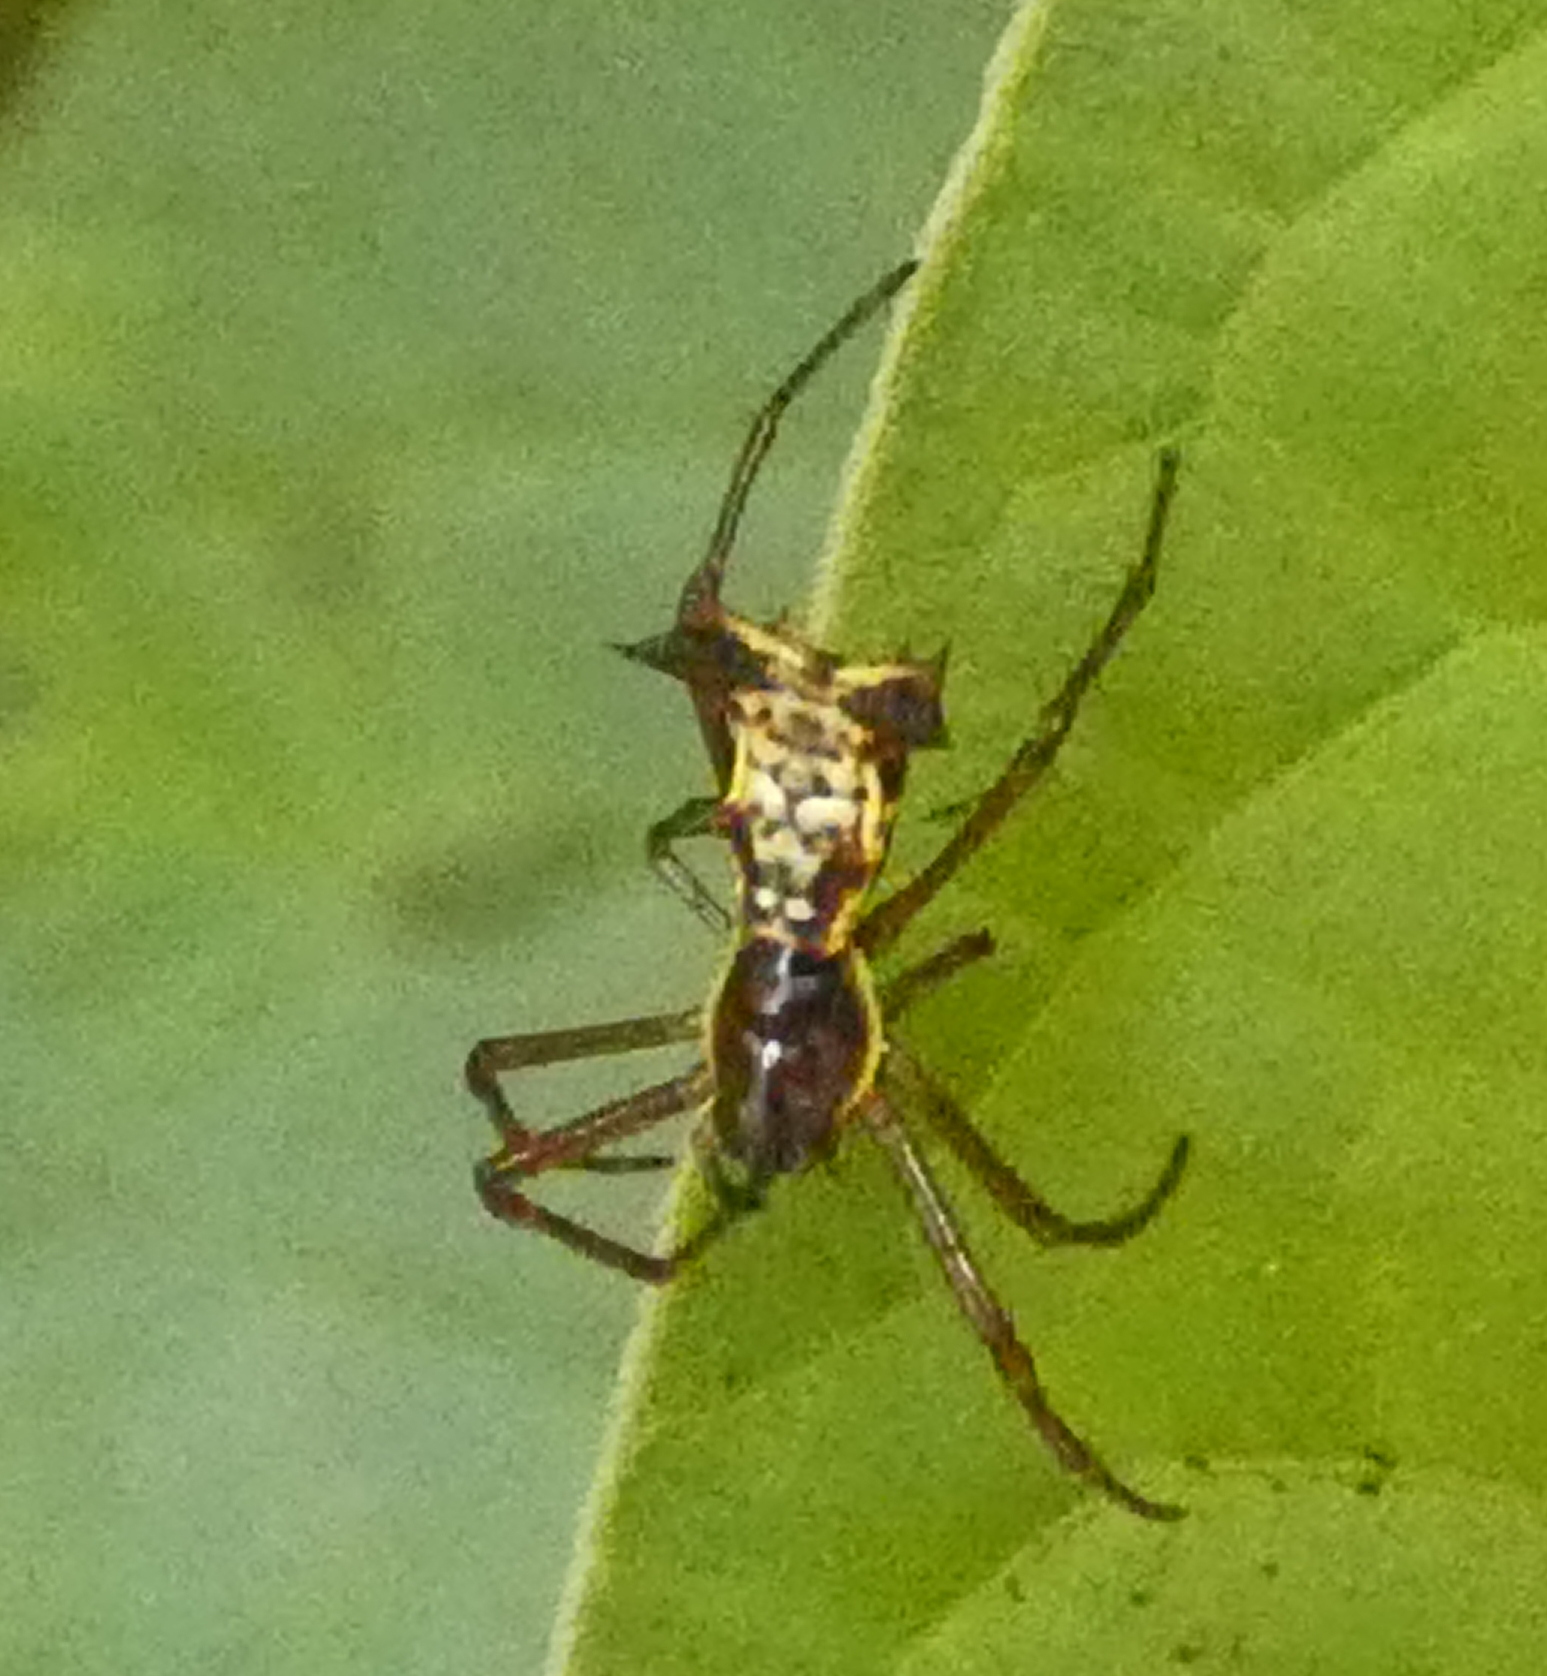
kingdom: Animalia
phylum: Arthropoda
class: Arachnida
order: Araneae
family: Araneidae
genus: Micrathena
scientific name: Micrathena fissispina
